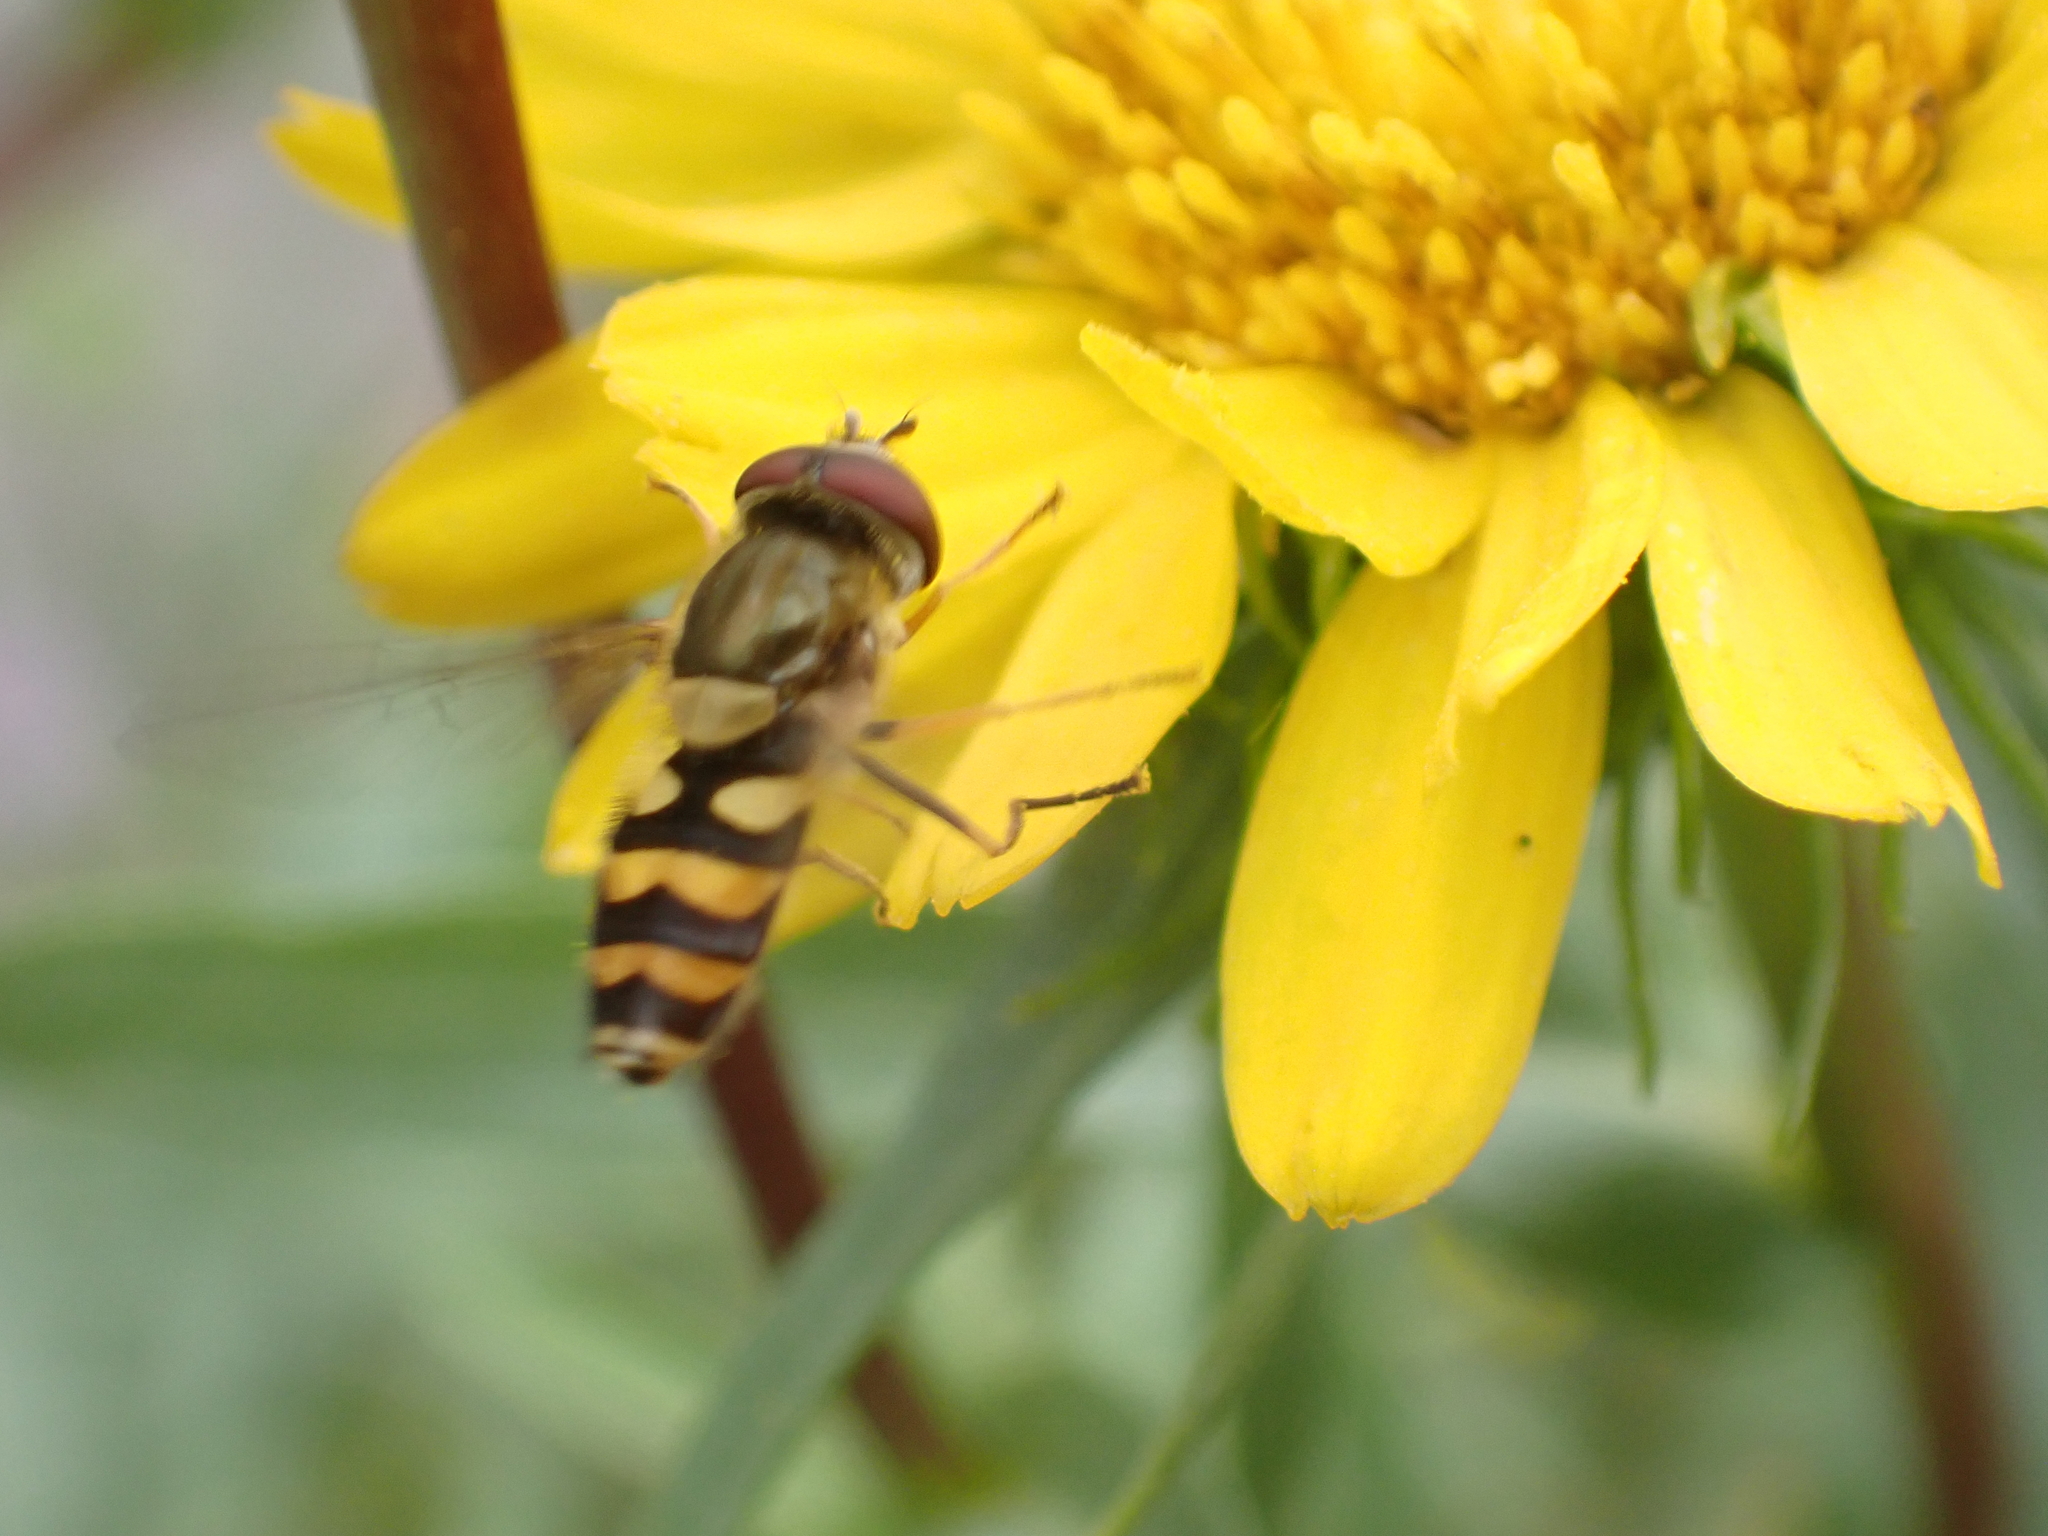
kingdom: Animalia
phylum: Arthropoda
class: Insecta
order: Diptera
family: Syrphidae
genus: Syrphus
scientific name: Syrphus
